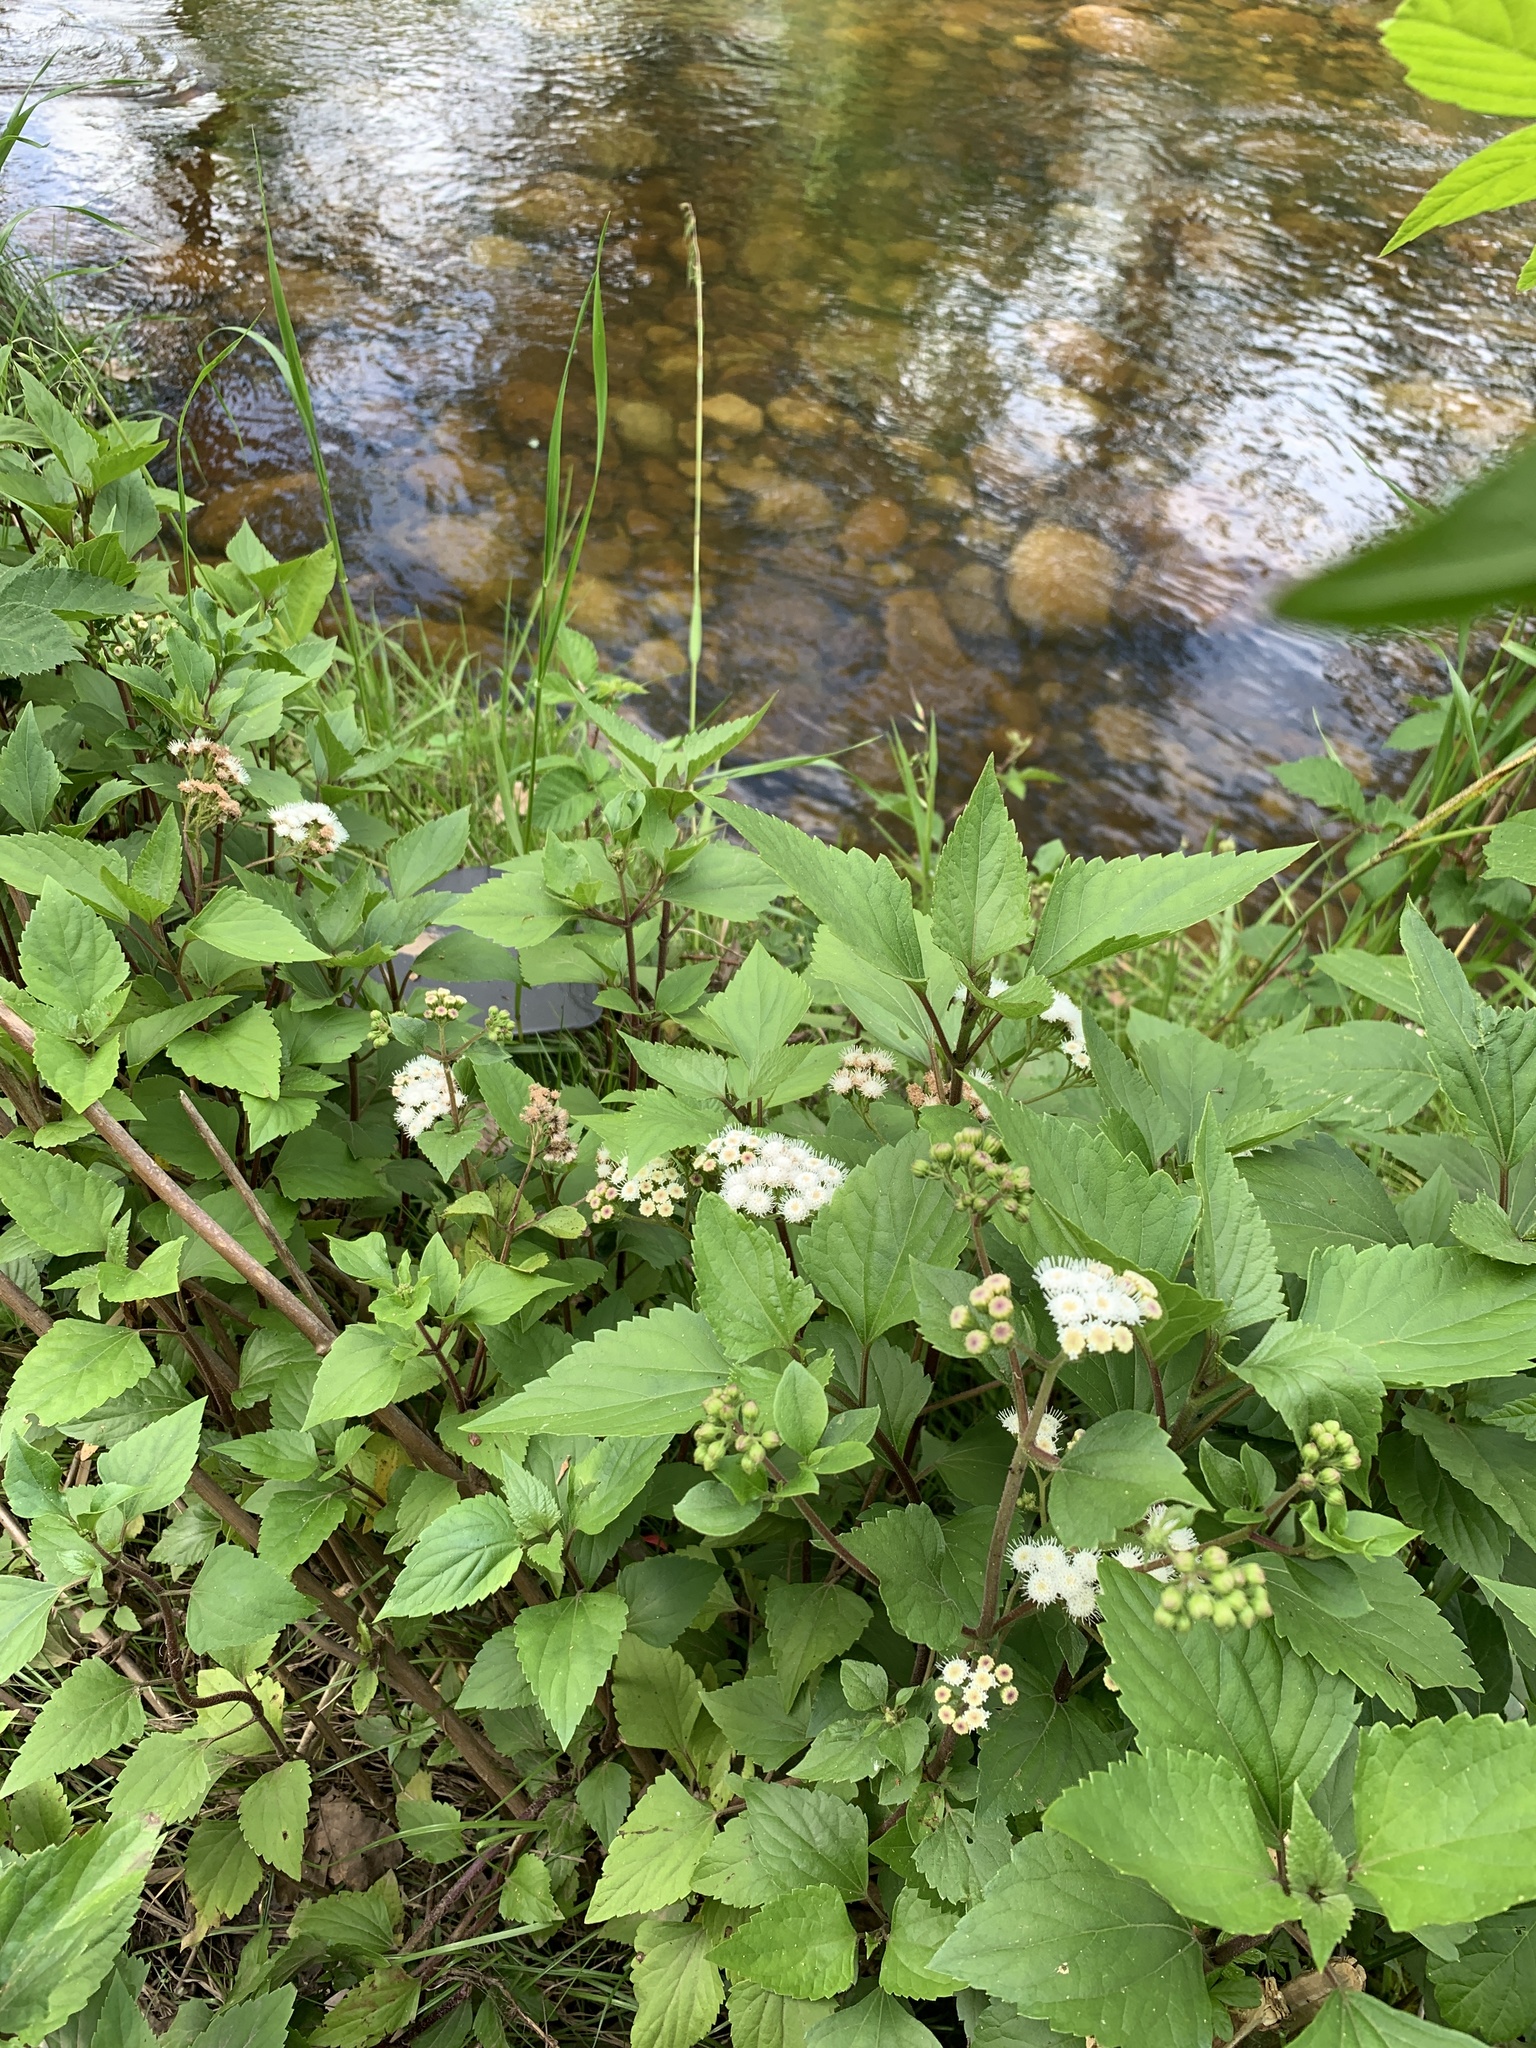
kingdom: Plantae
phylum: Tracheophyta
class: Magnoliopsida
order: Asterales
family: Asteraceae
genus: Ageratina
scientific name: Ageratina adenophora
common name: Sticky snakeroot
